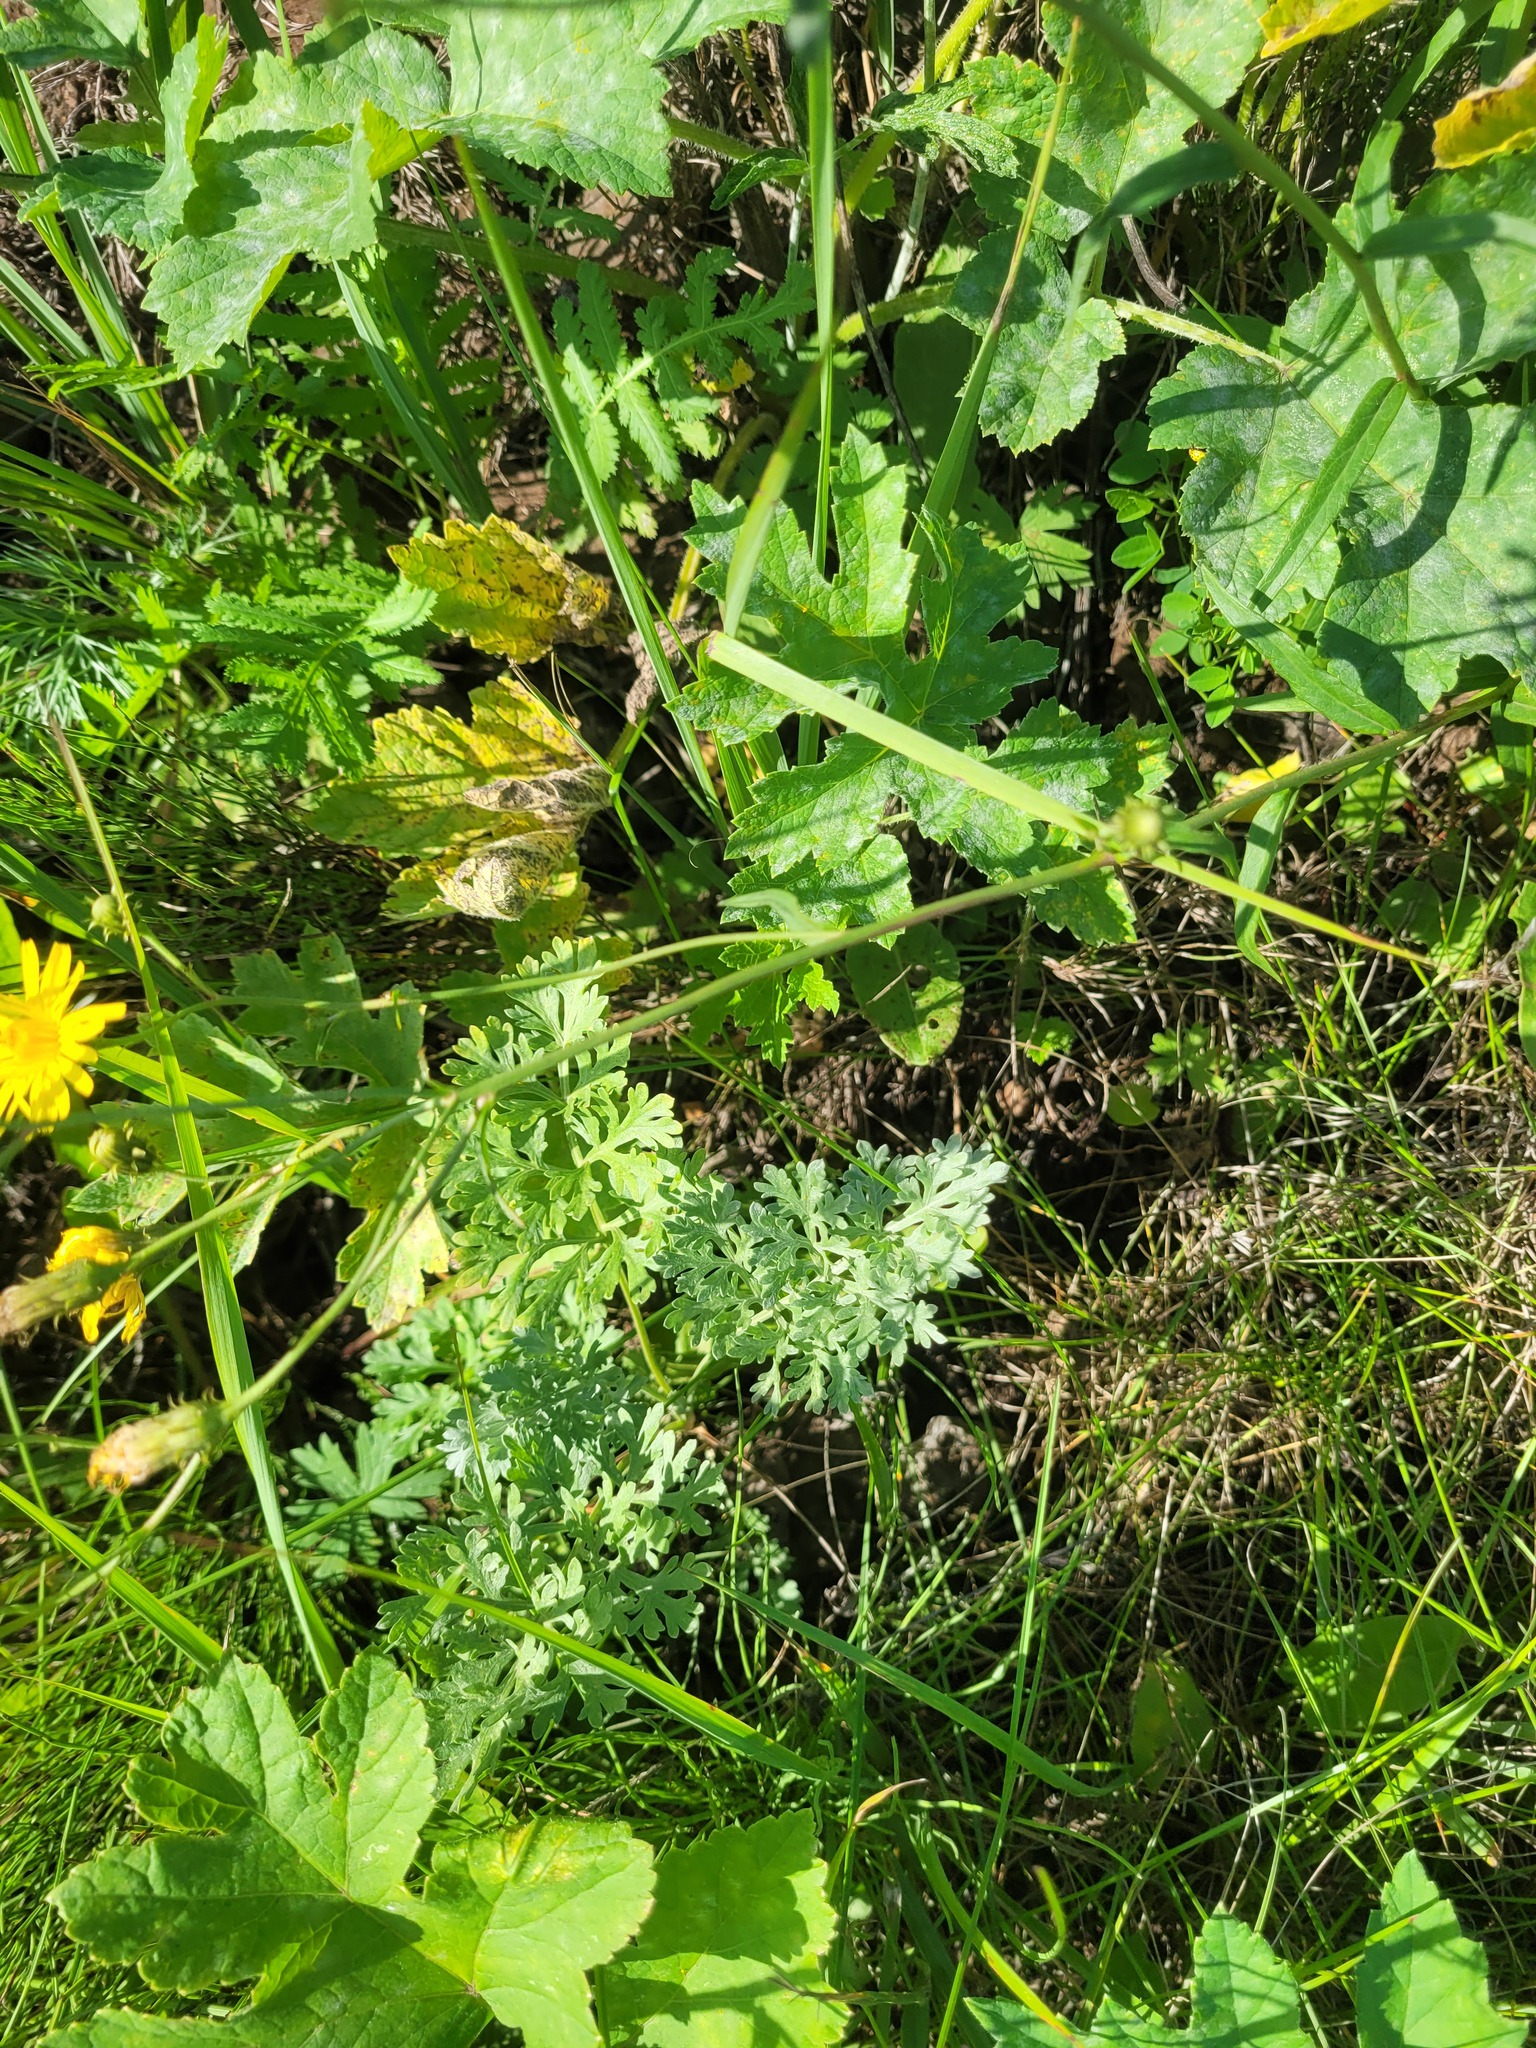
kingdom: Plantae
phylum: Tracheophyta
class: Magnoliopsida
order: Asterales
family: Asteraceae
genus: Artemisia
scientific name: Artemisia absinthium
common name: Wormwood
